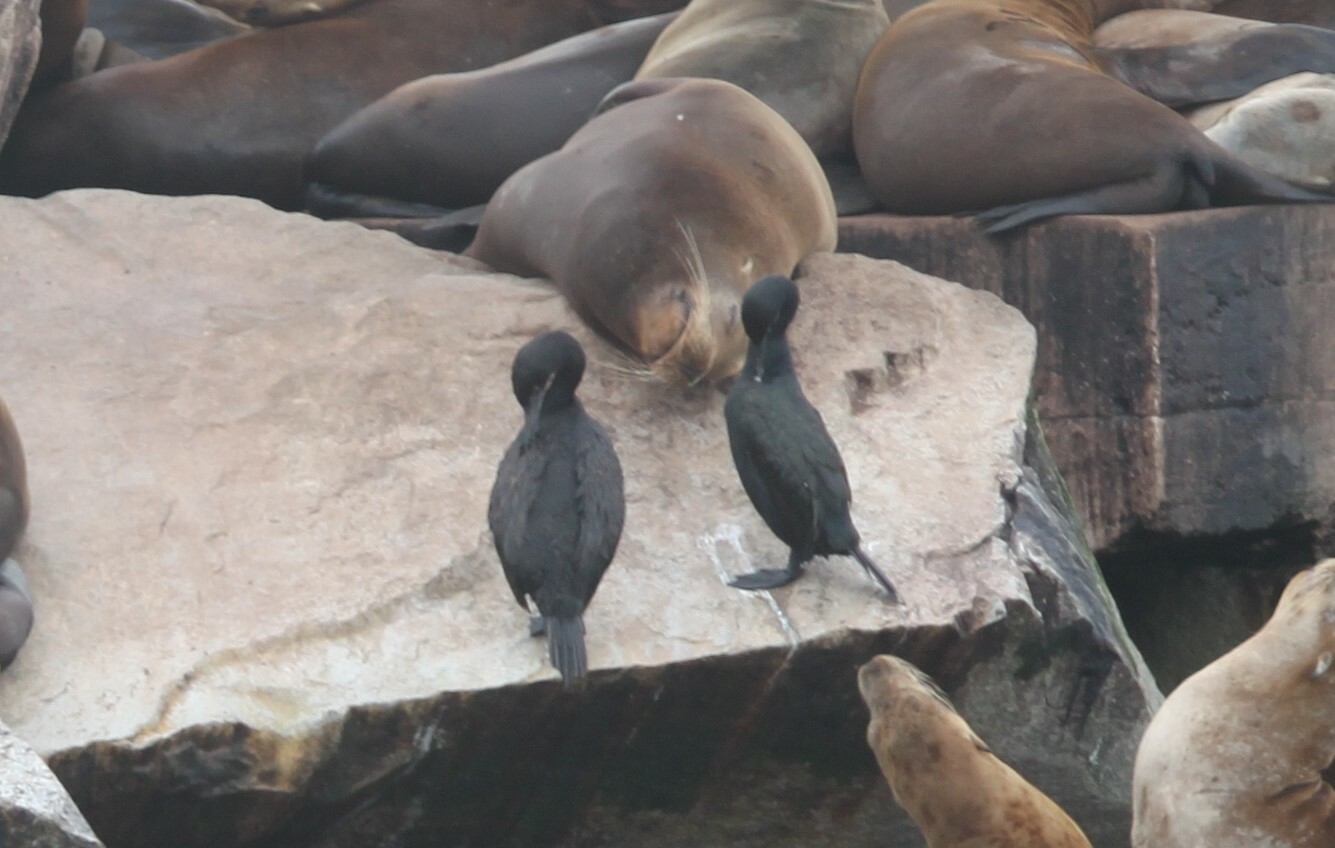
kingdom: Animalia
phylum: Chordata
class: Aves
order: Suliformes
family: Phalacrocoracidae
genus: Urile
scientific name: Urile penicillatus
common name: Brandt's cormorant
